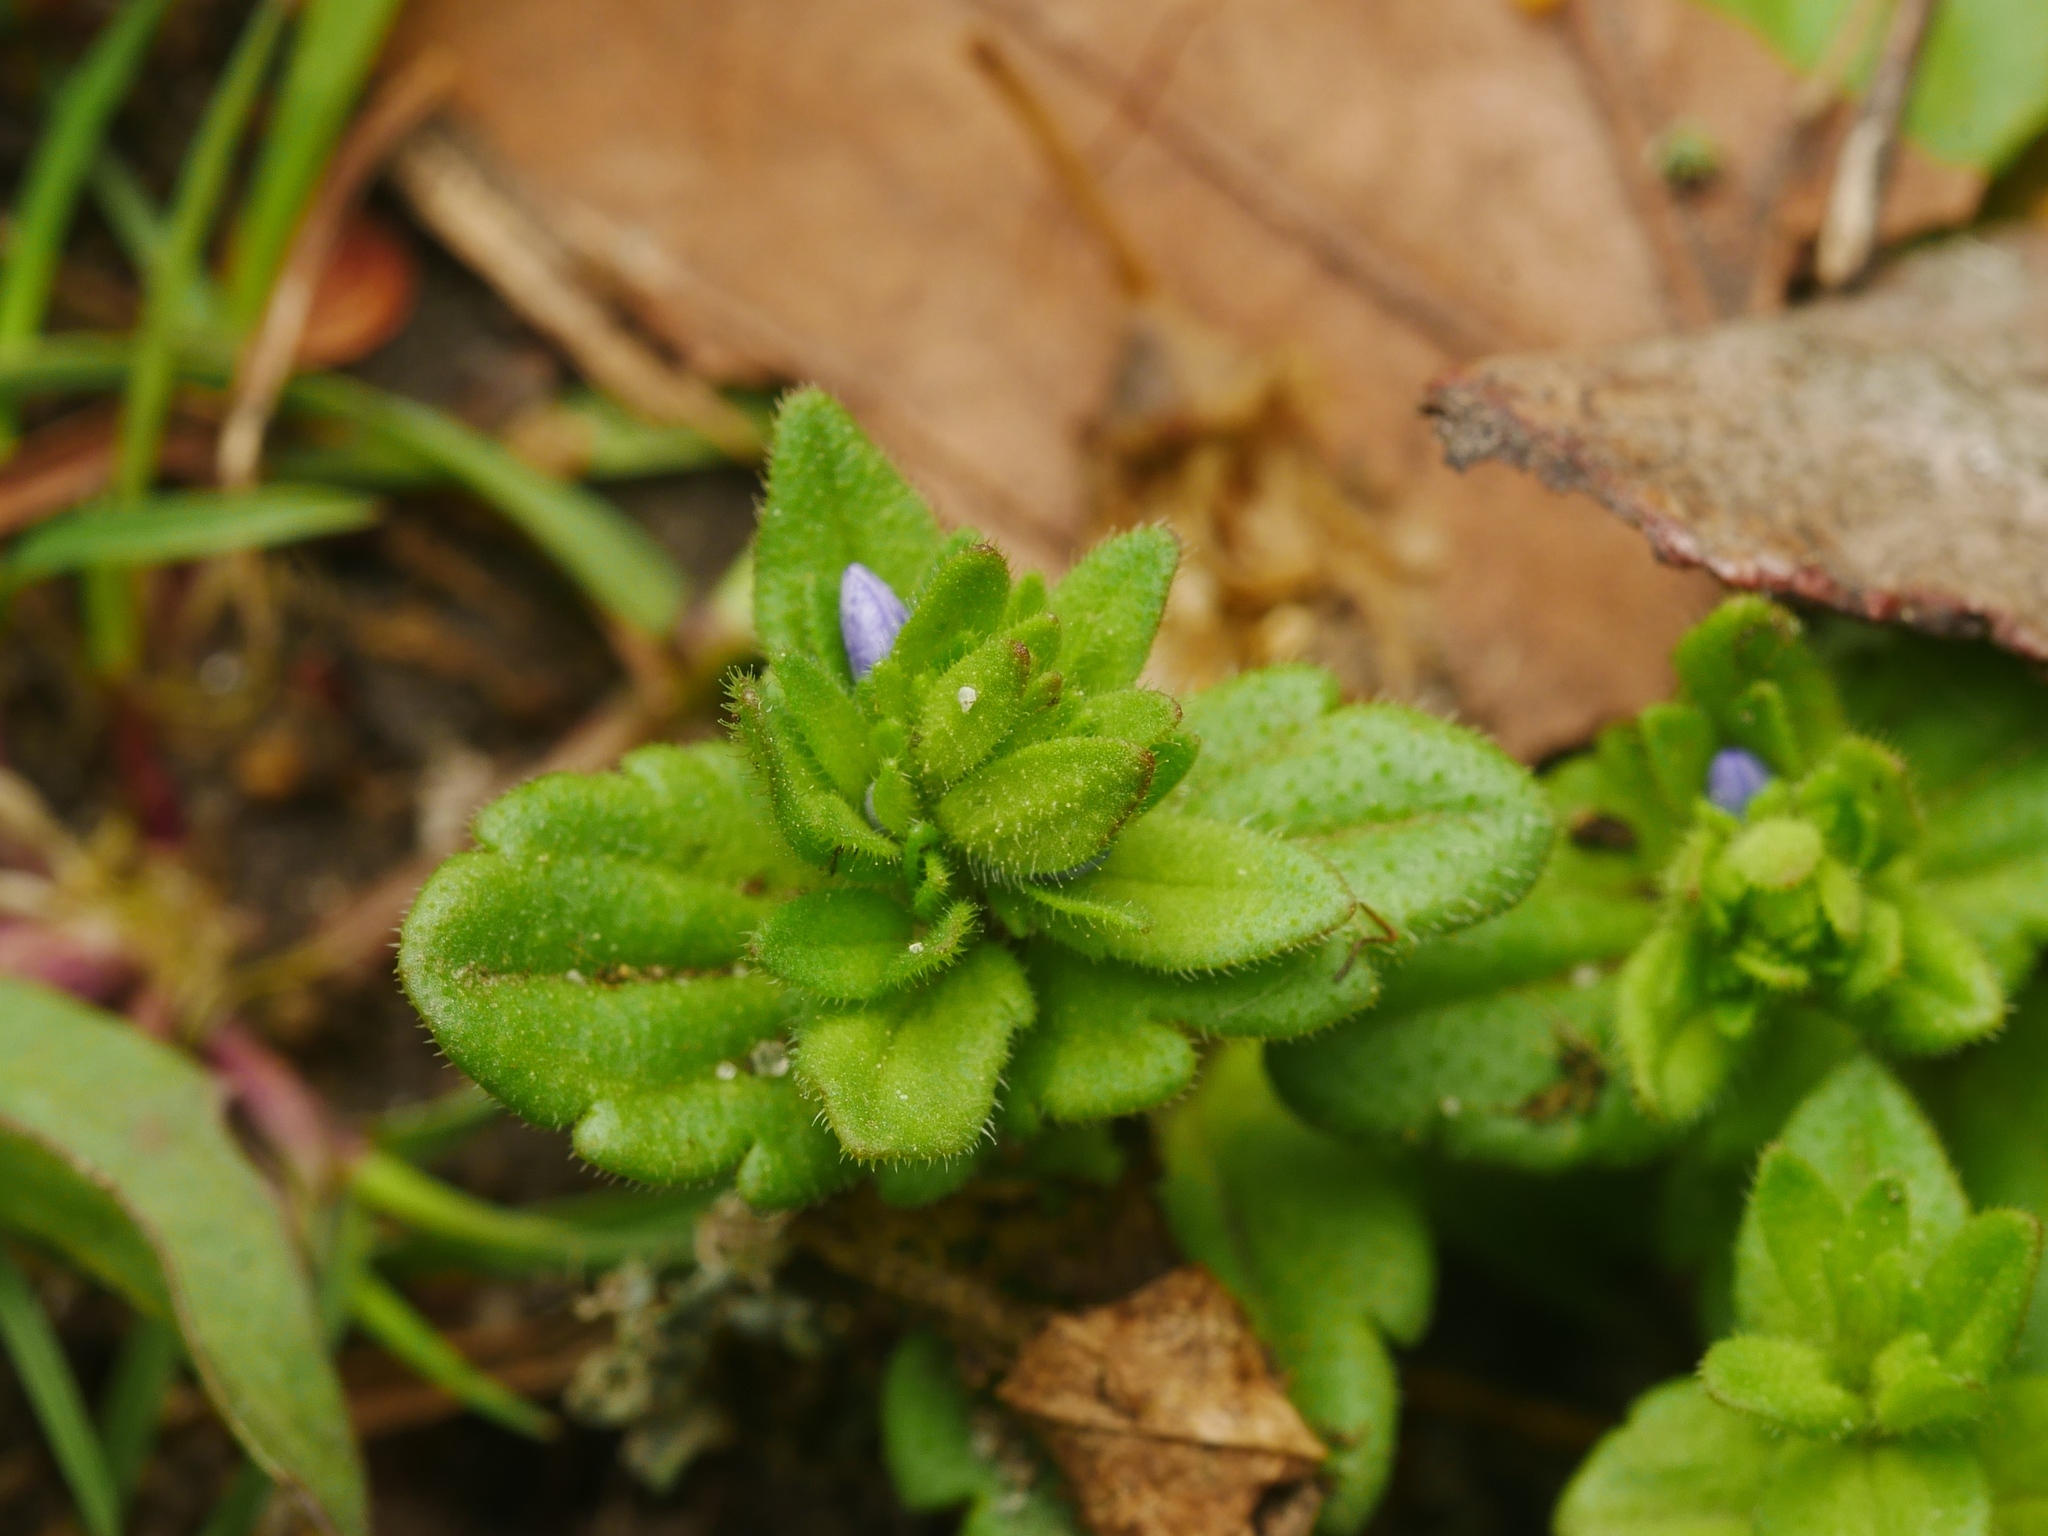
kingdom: Plantae
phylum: Tracheophyta
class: Magnoliopsida
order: Lamiales
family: Plantaginaceae
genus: Veronica
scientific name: Veronica arvensis
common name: Corn speedwell
